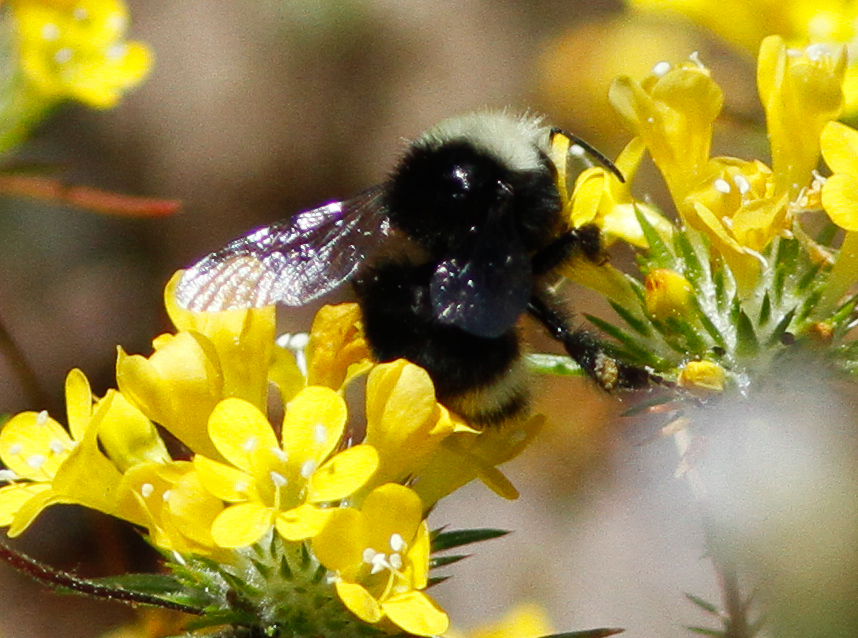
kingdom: Plantae
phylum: Tracheophyta
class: Magnoliopsida
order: Ericales
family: Polemoniaceae
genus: Navarretia
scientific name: Navarretia prolifera
